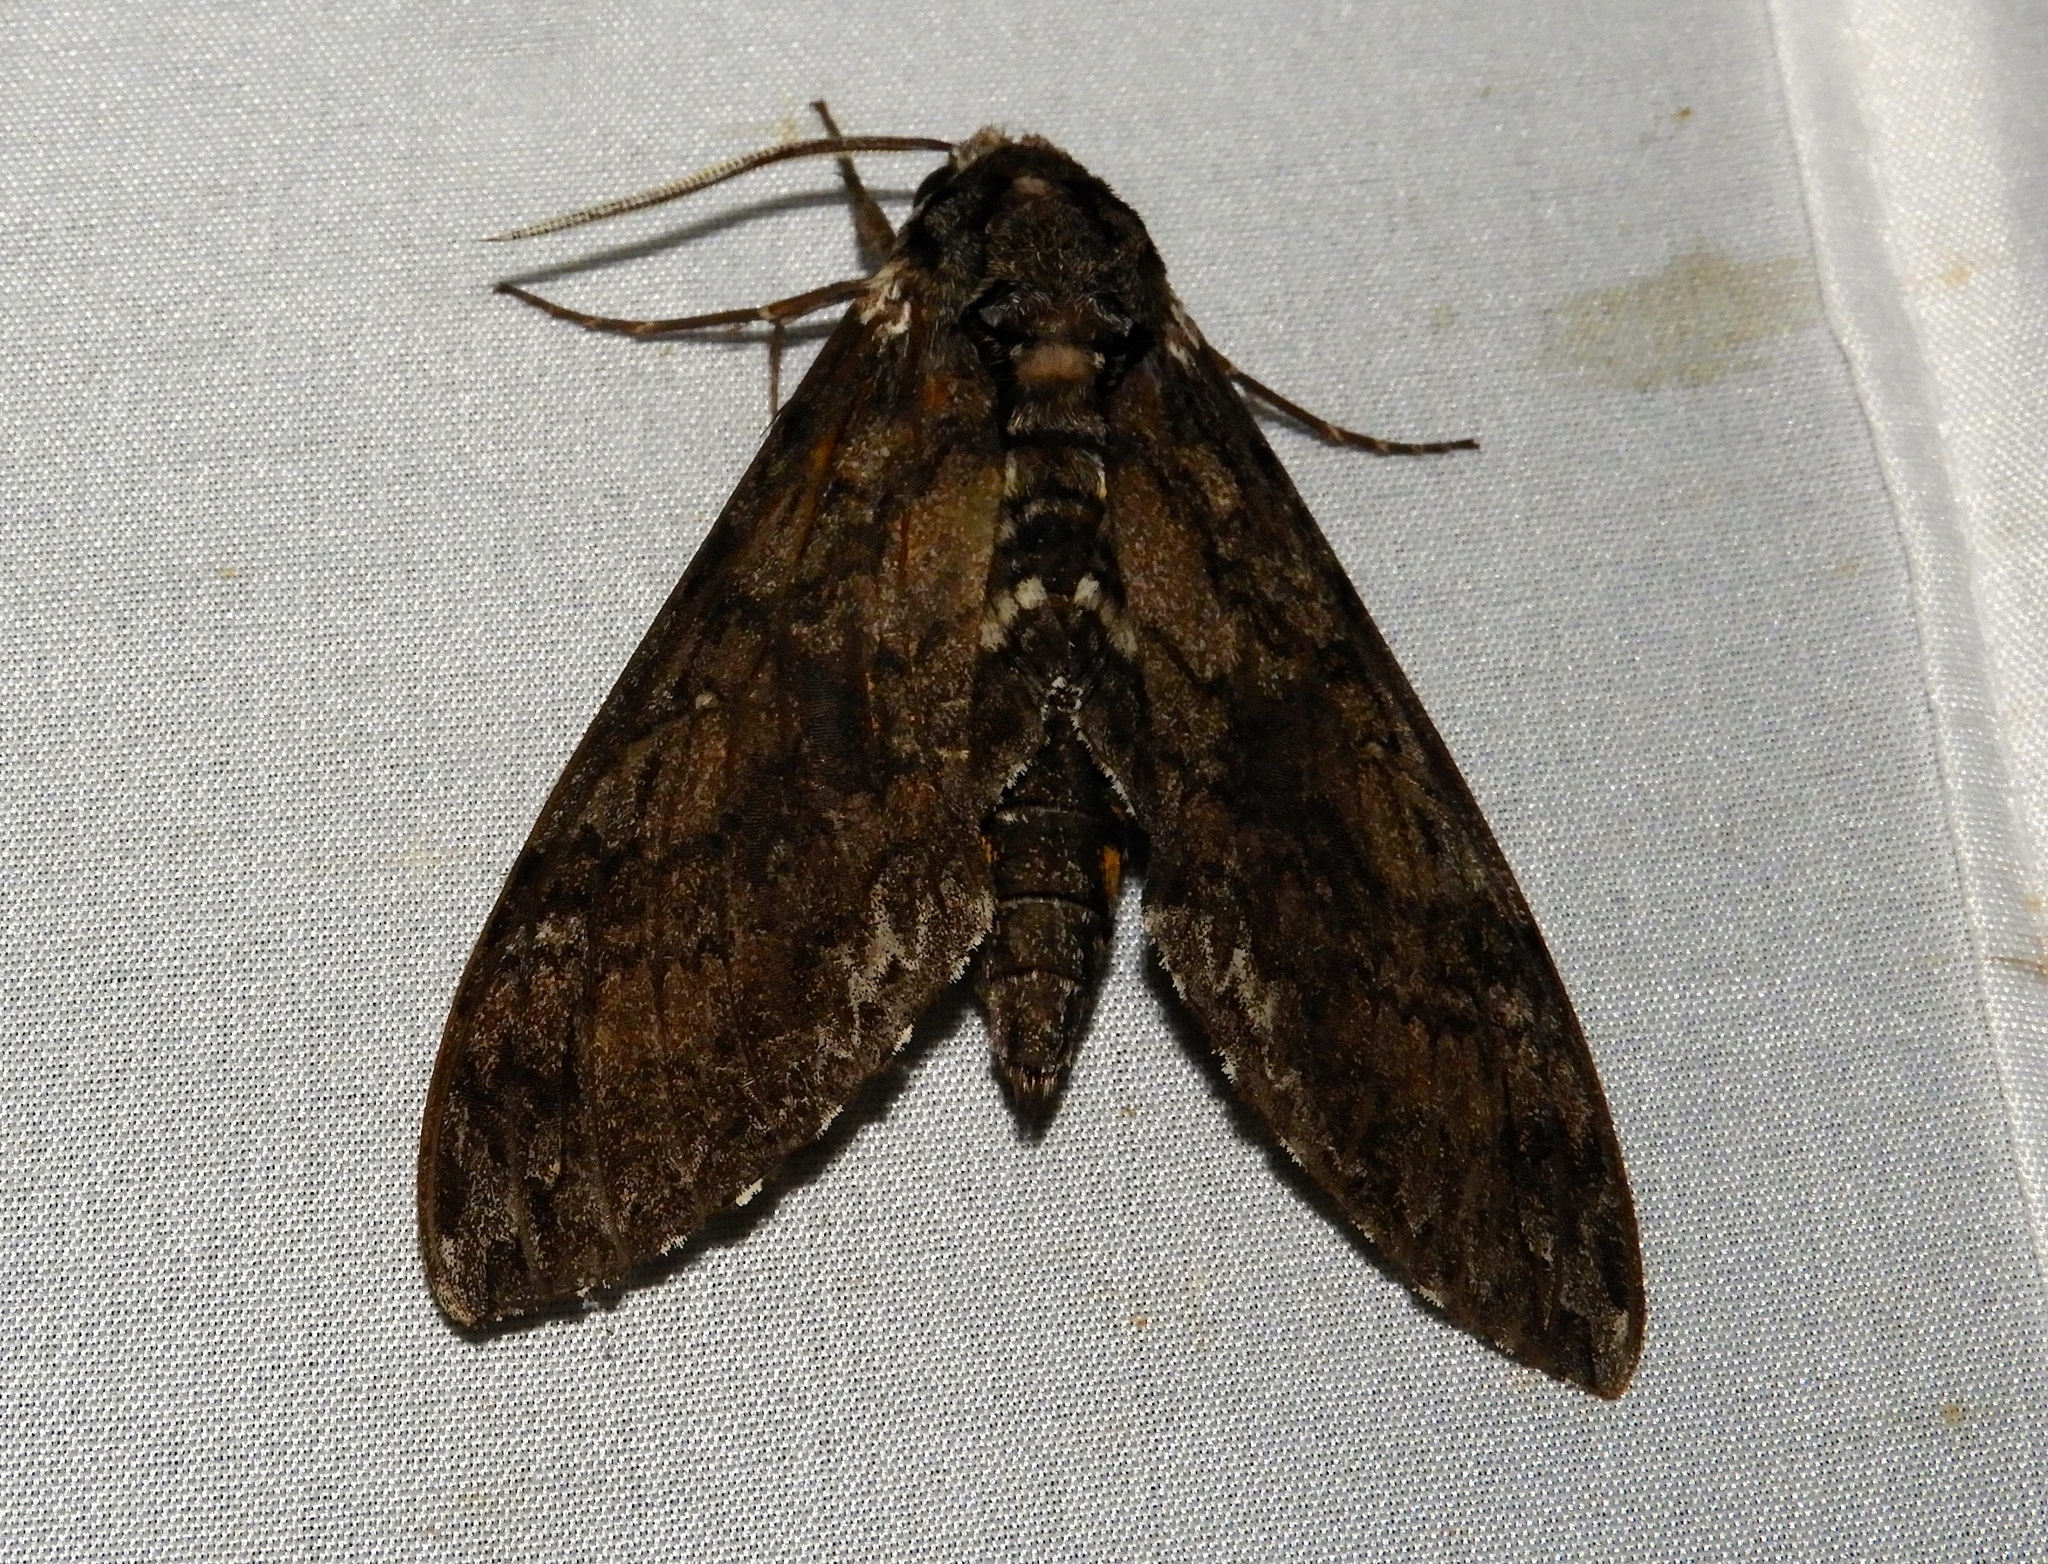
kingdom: Animalia
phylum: Arthropoda
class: Insecta
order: Lepidoptera
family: Sphingidae
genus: Manduca
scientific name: Manduca sexta
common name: Carolina sphinx
